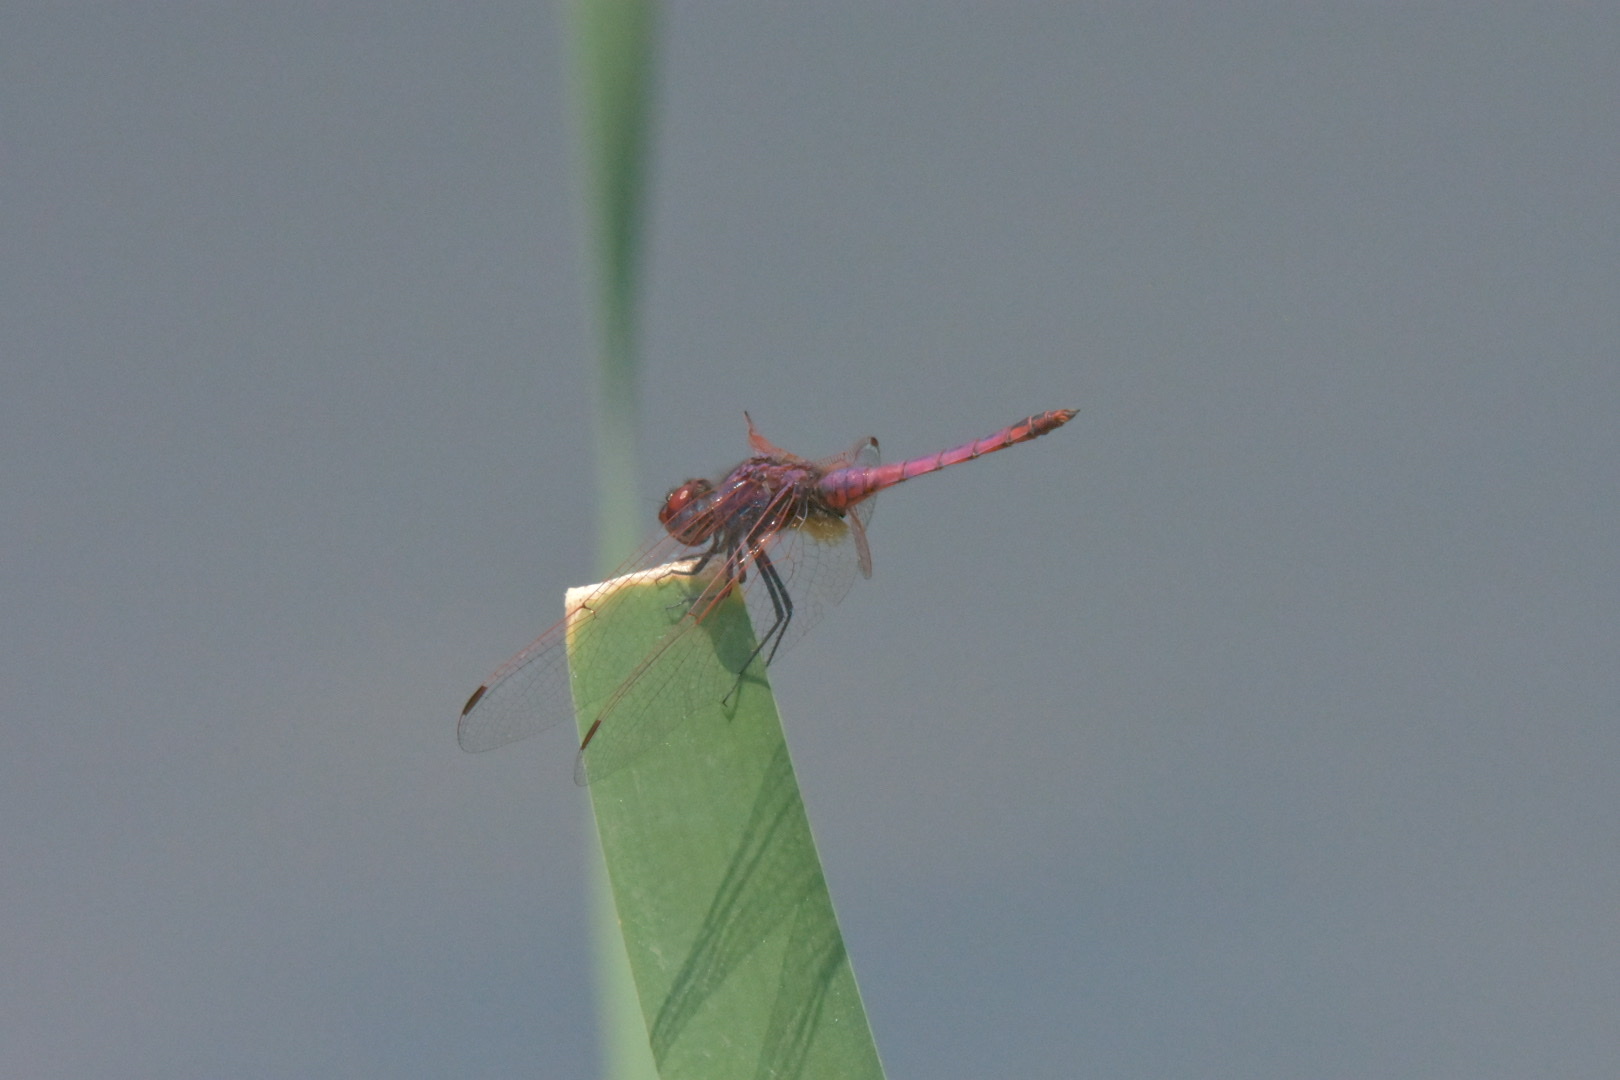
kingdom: Animalia
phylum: Arthropoda
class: Insecta
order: Odonata
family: Libellulidae
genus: Trithemis
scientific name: Trithemis annulata
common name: Violet dropwing
